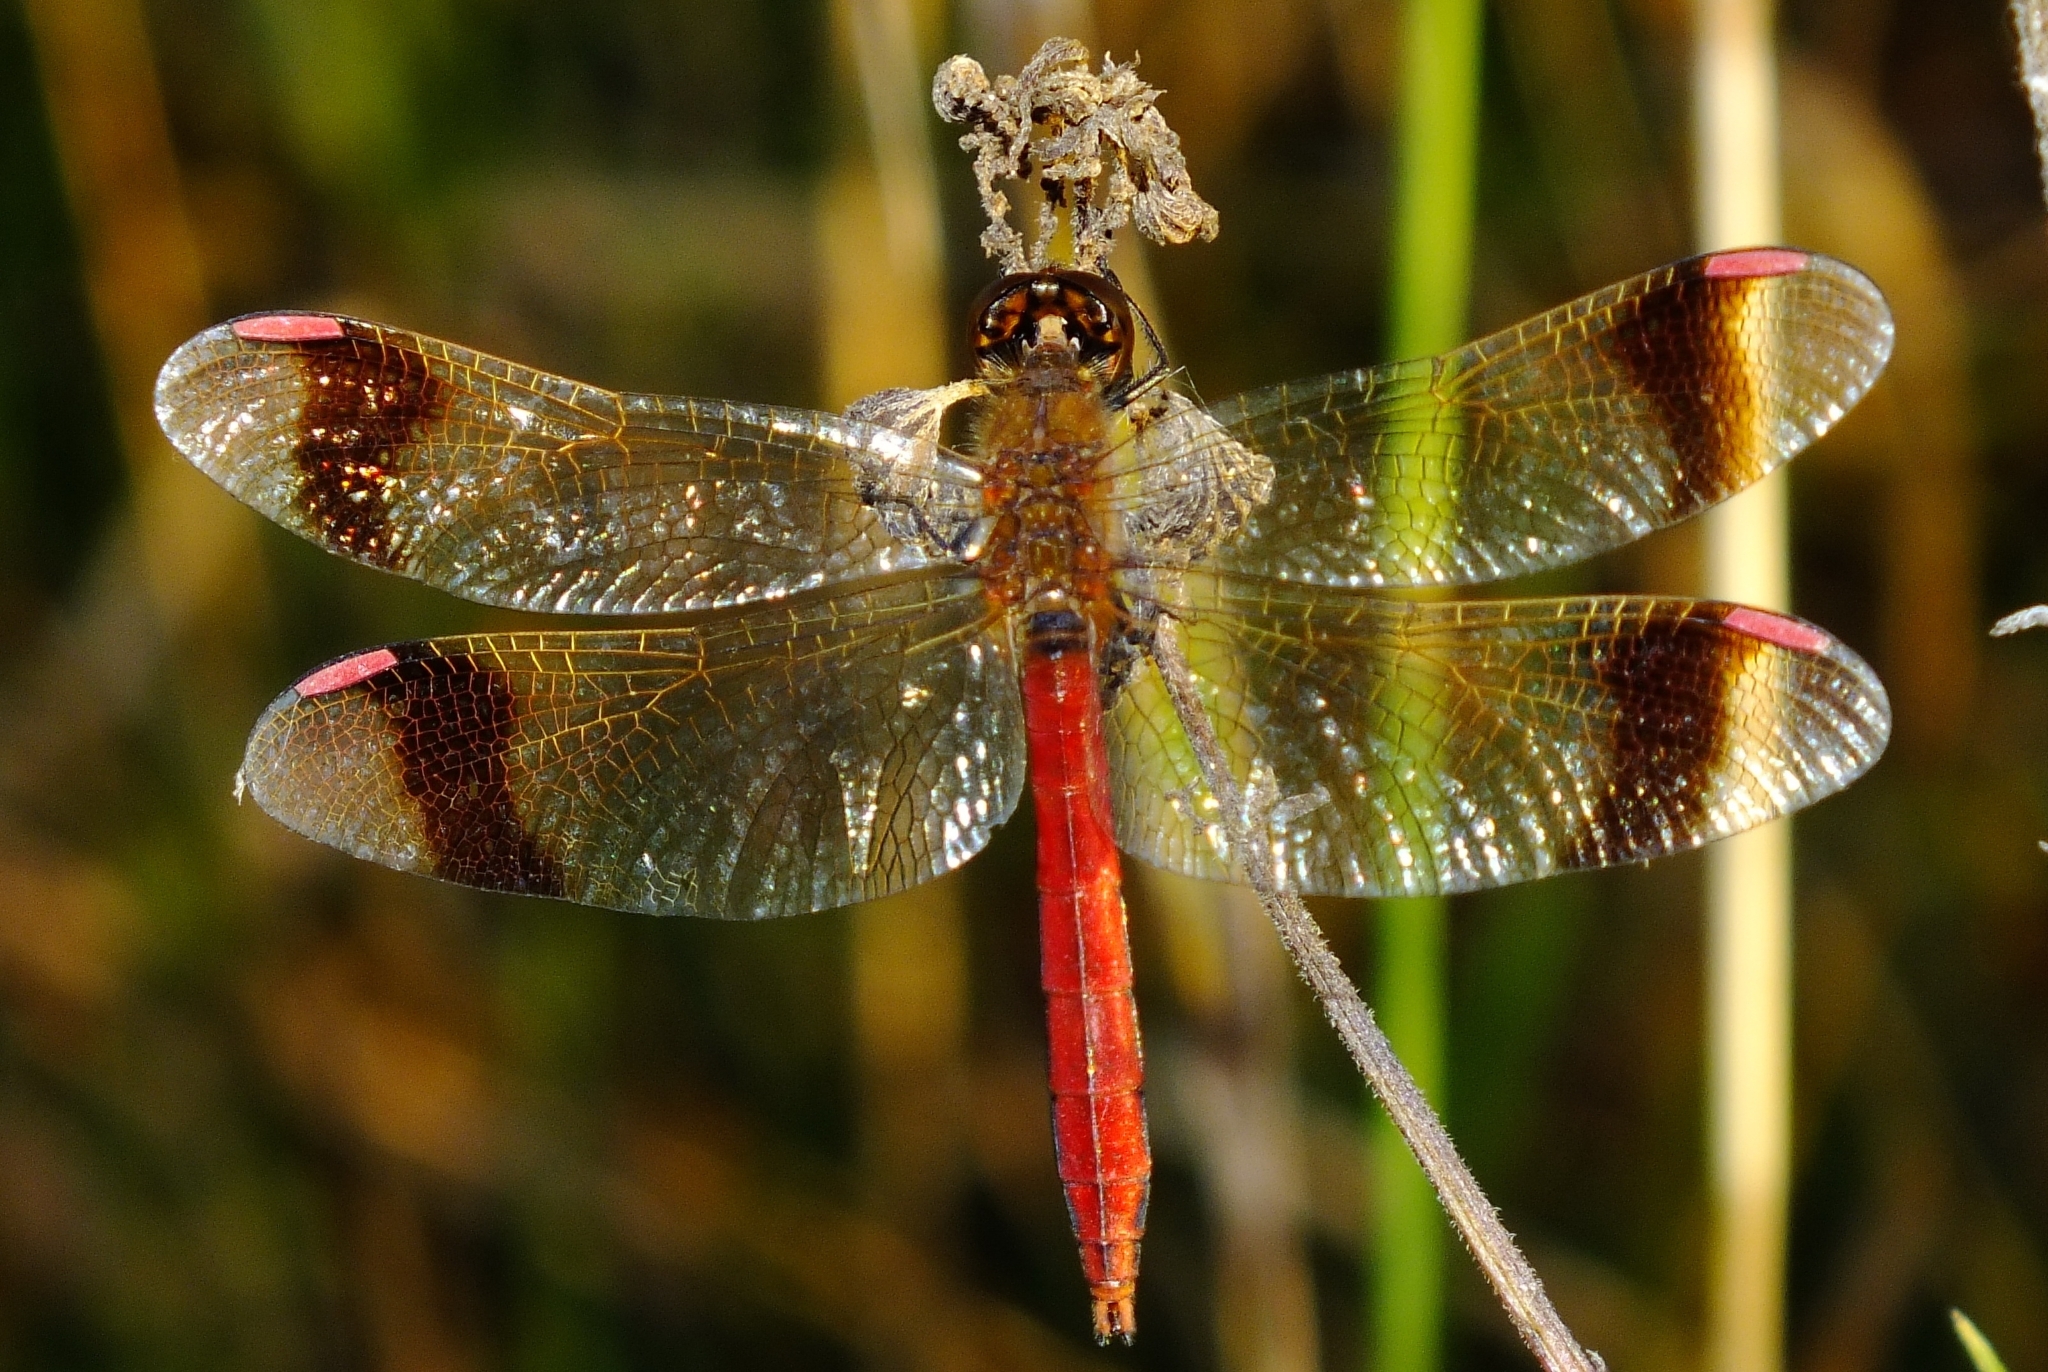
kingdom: Animalia
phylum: Arthropoda
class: Insecta
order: Odonata
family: Libellulidae
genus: Sympetrum
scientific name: Sympetrum pedemontanum
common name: Banded darter
